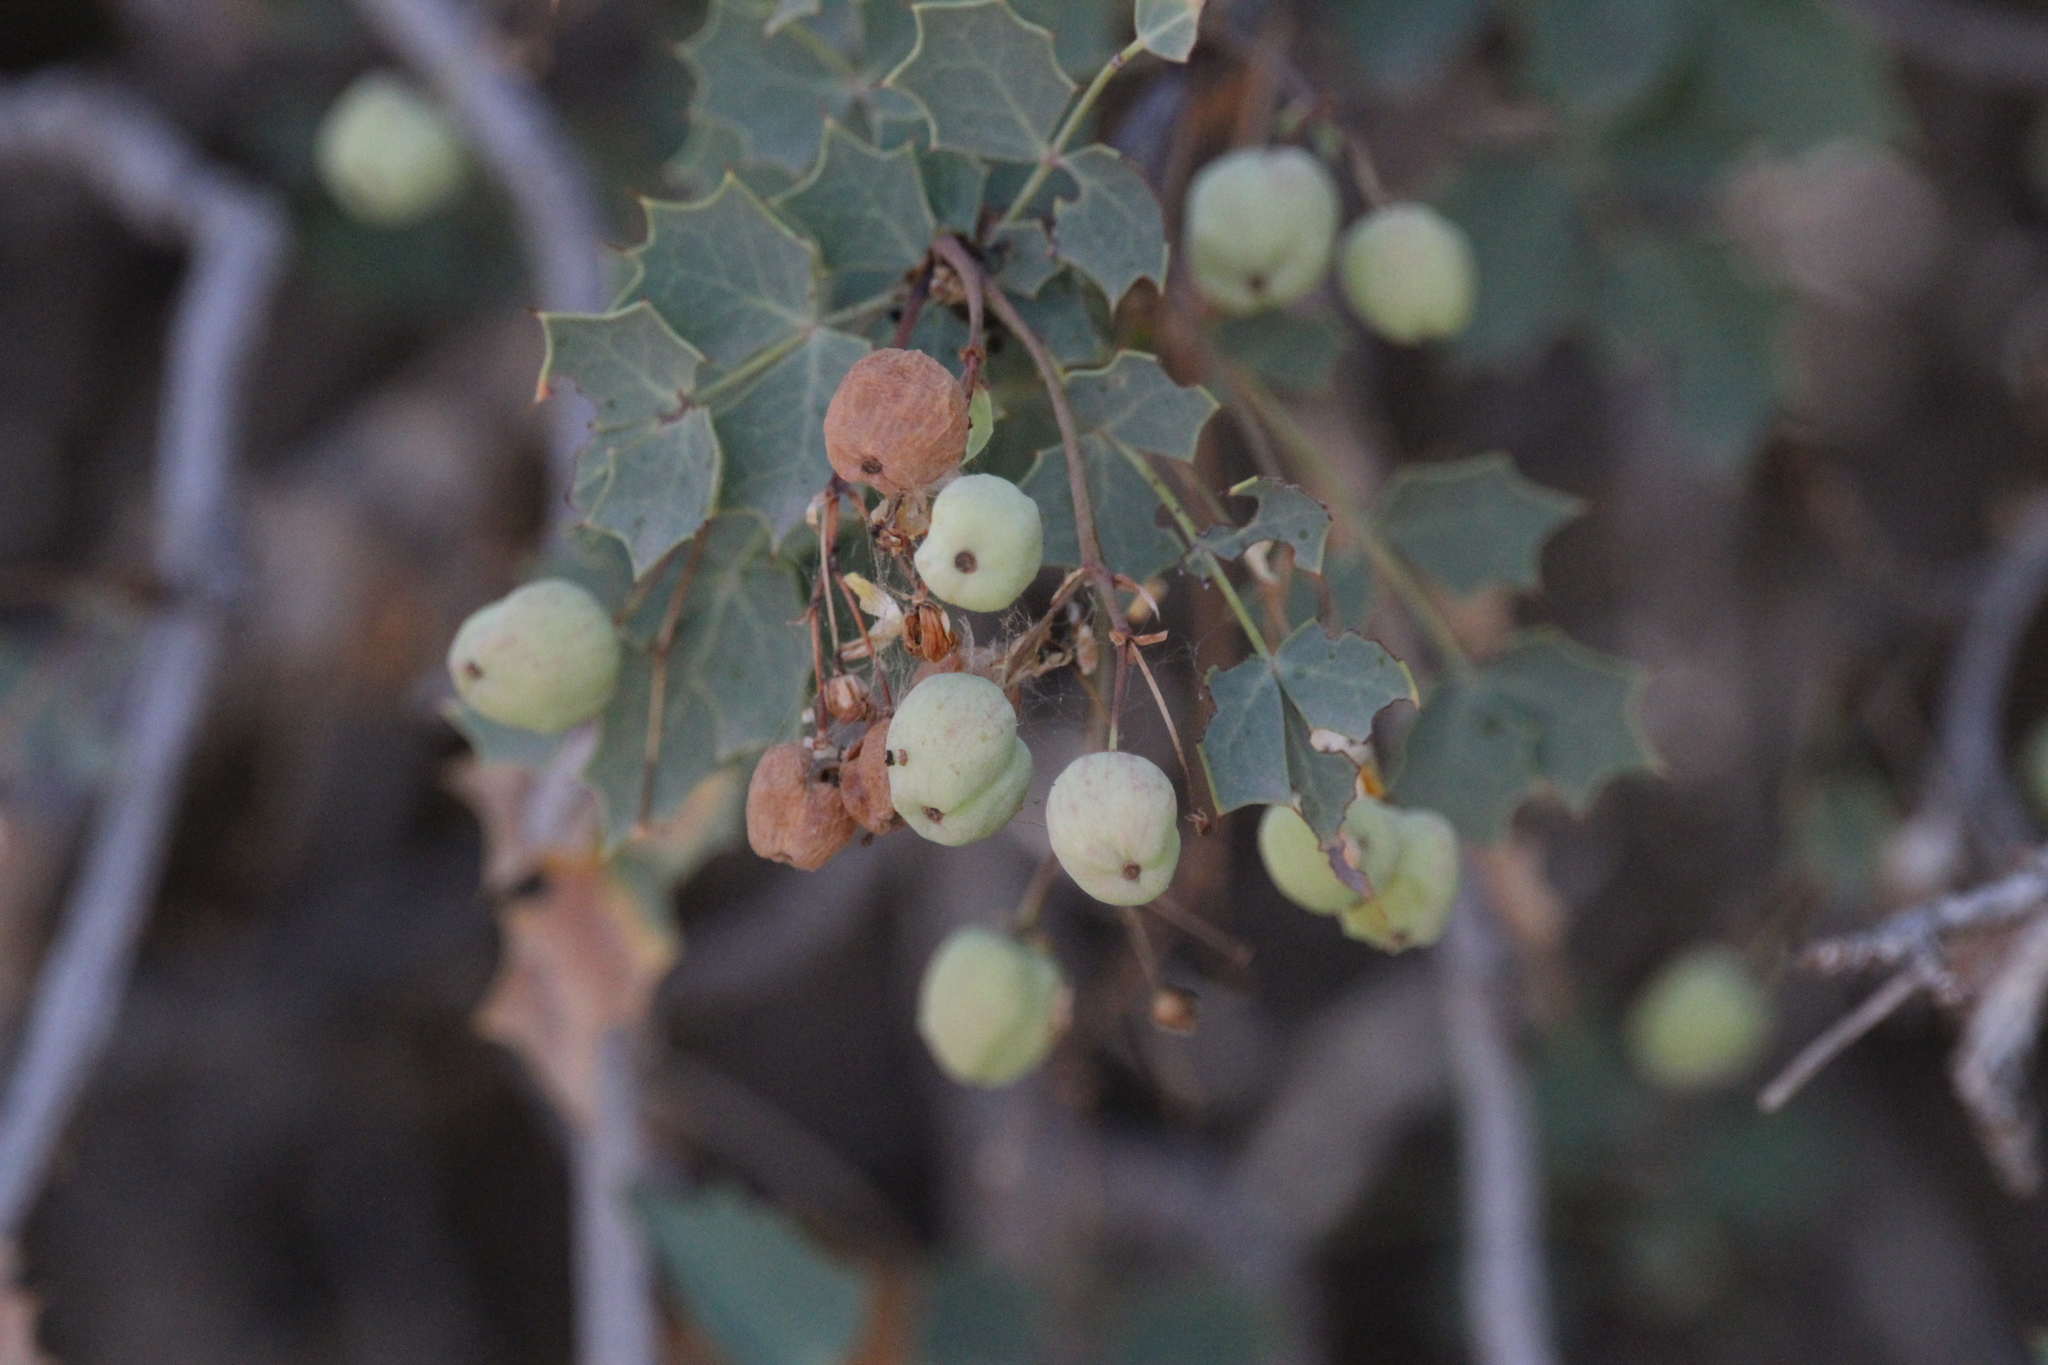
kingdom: Plantae
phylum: Tracheophyta
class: Magnoliopsida
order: Ranunculales
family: Berberidaceae
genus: Alloberberis
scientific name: Alloberberis fremontii
